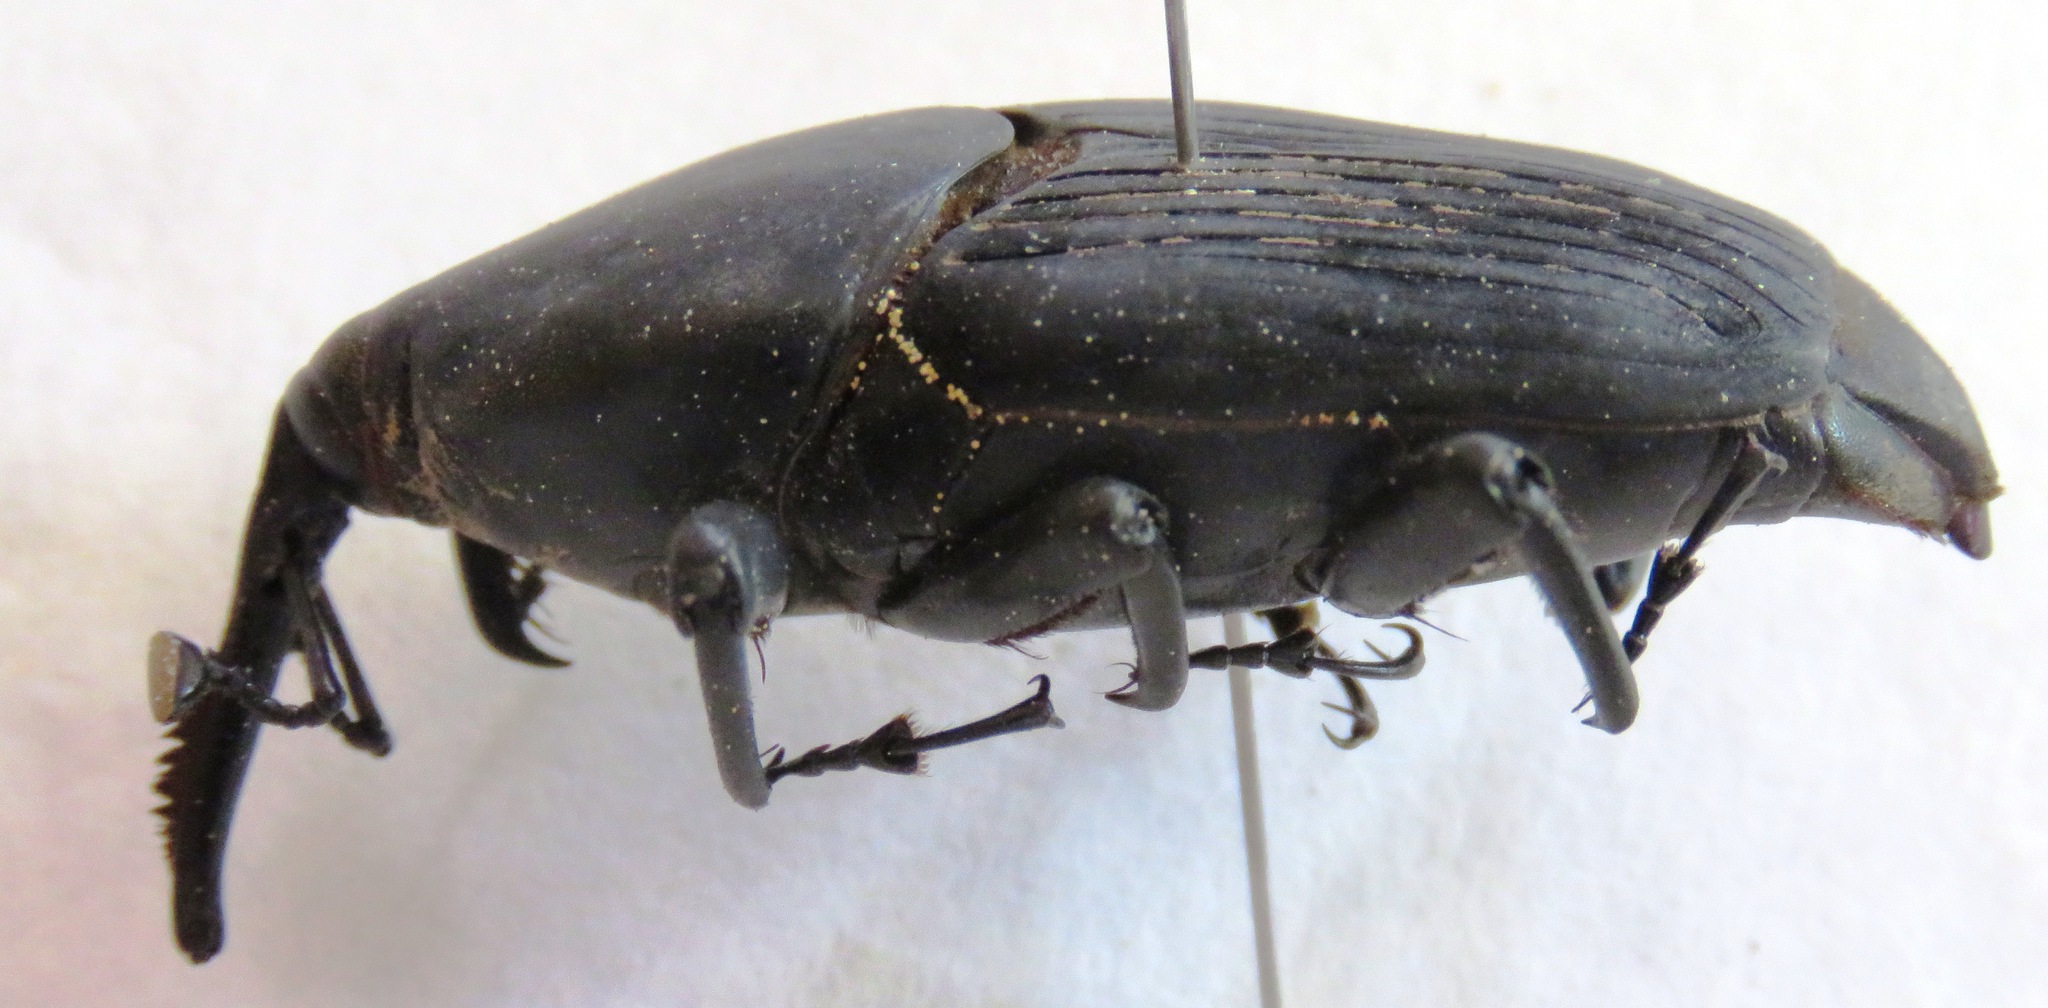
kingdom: Animalia
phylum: Arthropoda
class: Insecta
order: Coleoptera
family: Dryophthoridae
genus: Rhynchophorus
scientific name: Rhynchophorus palmarum
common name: Palm weevil
